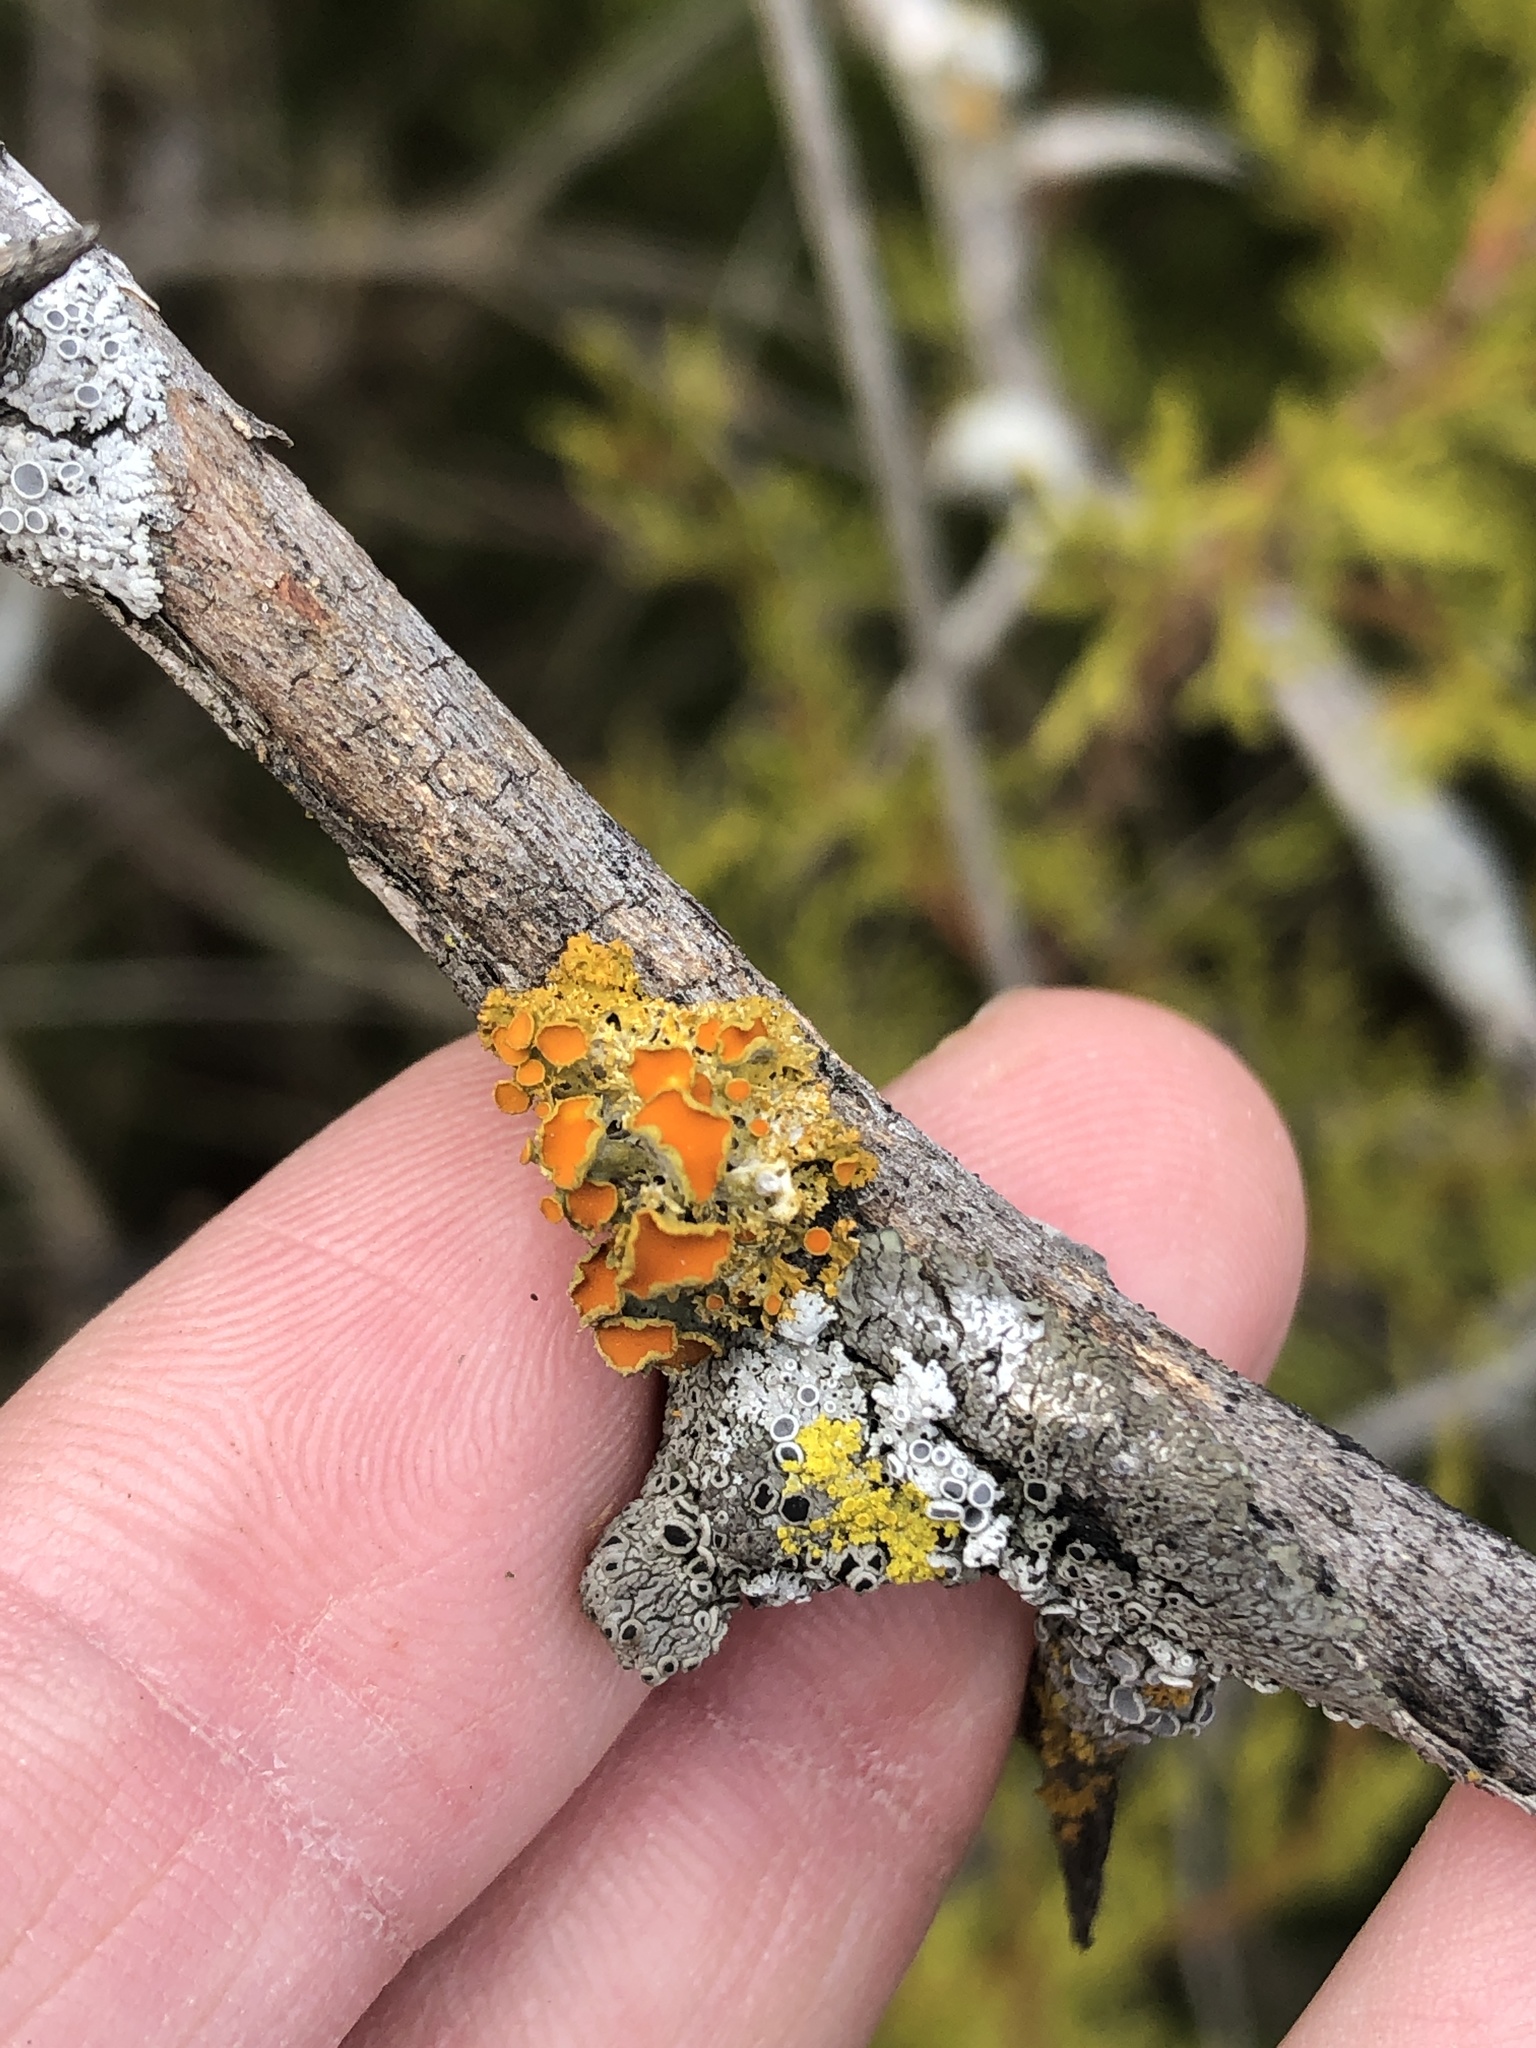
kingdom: Fungi
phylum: Ascomycota
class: Lecanoromycetes
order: Teloschistales
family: Teloschistaceae
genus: Niorma
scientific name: Niorma chrysophthalma
